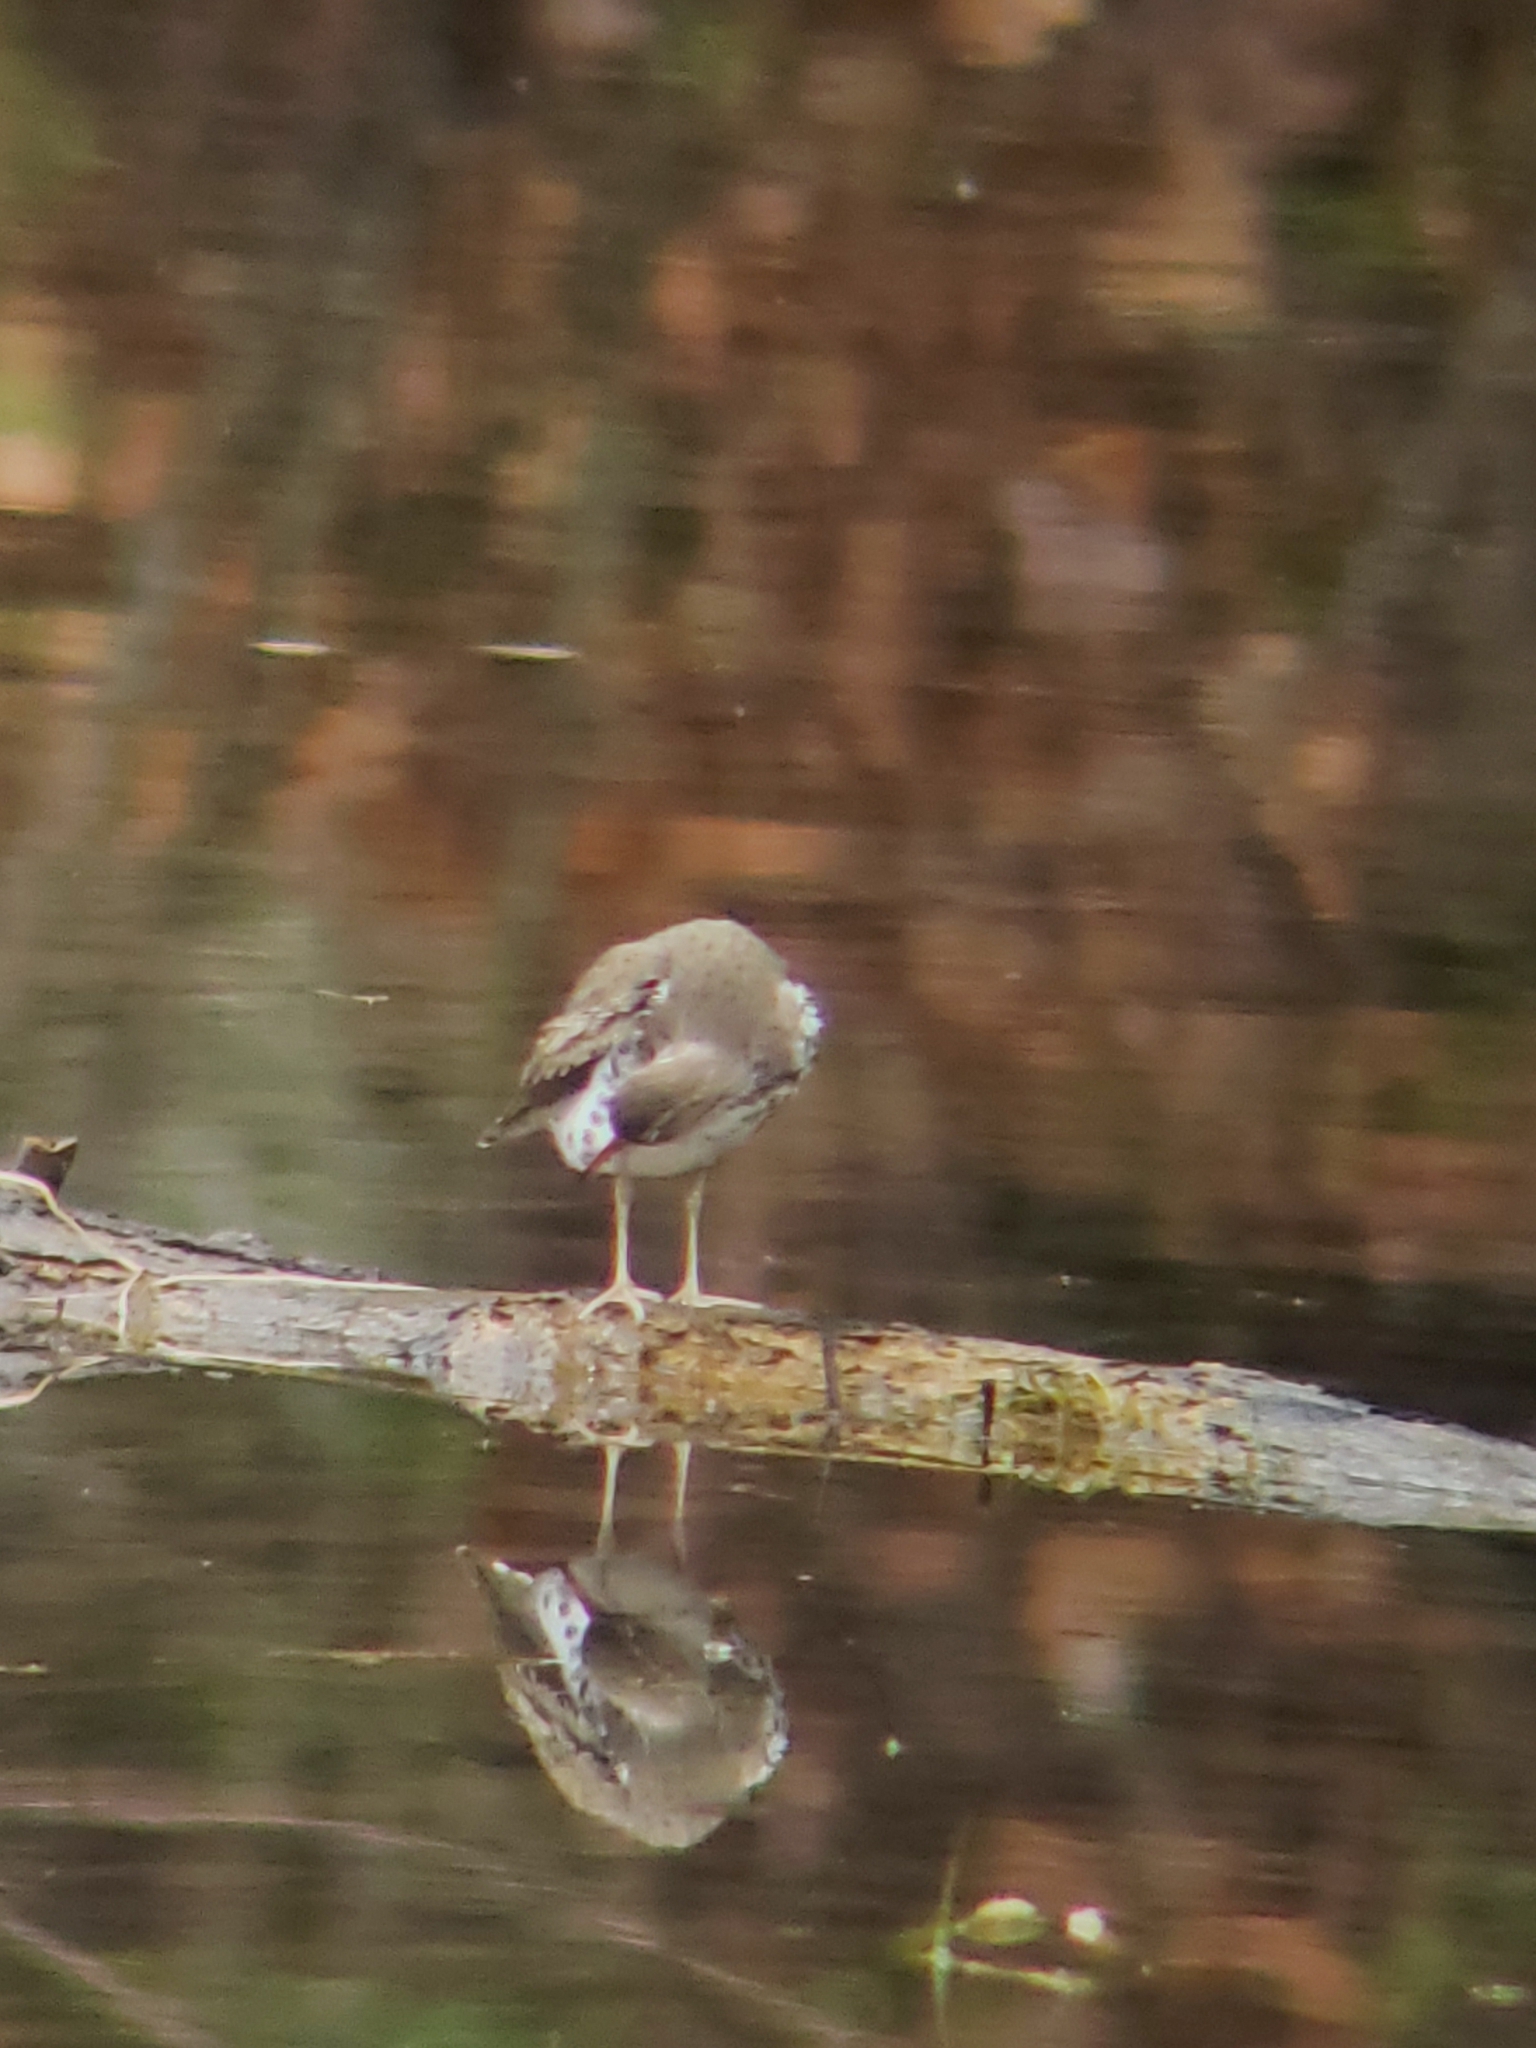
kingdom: Animalia
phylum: Chordata
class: Aves
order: Charadriiformes
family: Scolopacidae
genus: Actitis
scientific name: Actitis macularius
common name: Spotted sandpiper
